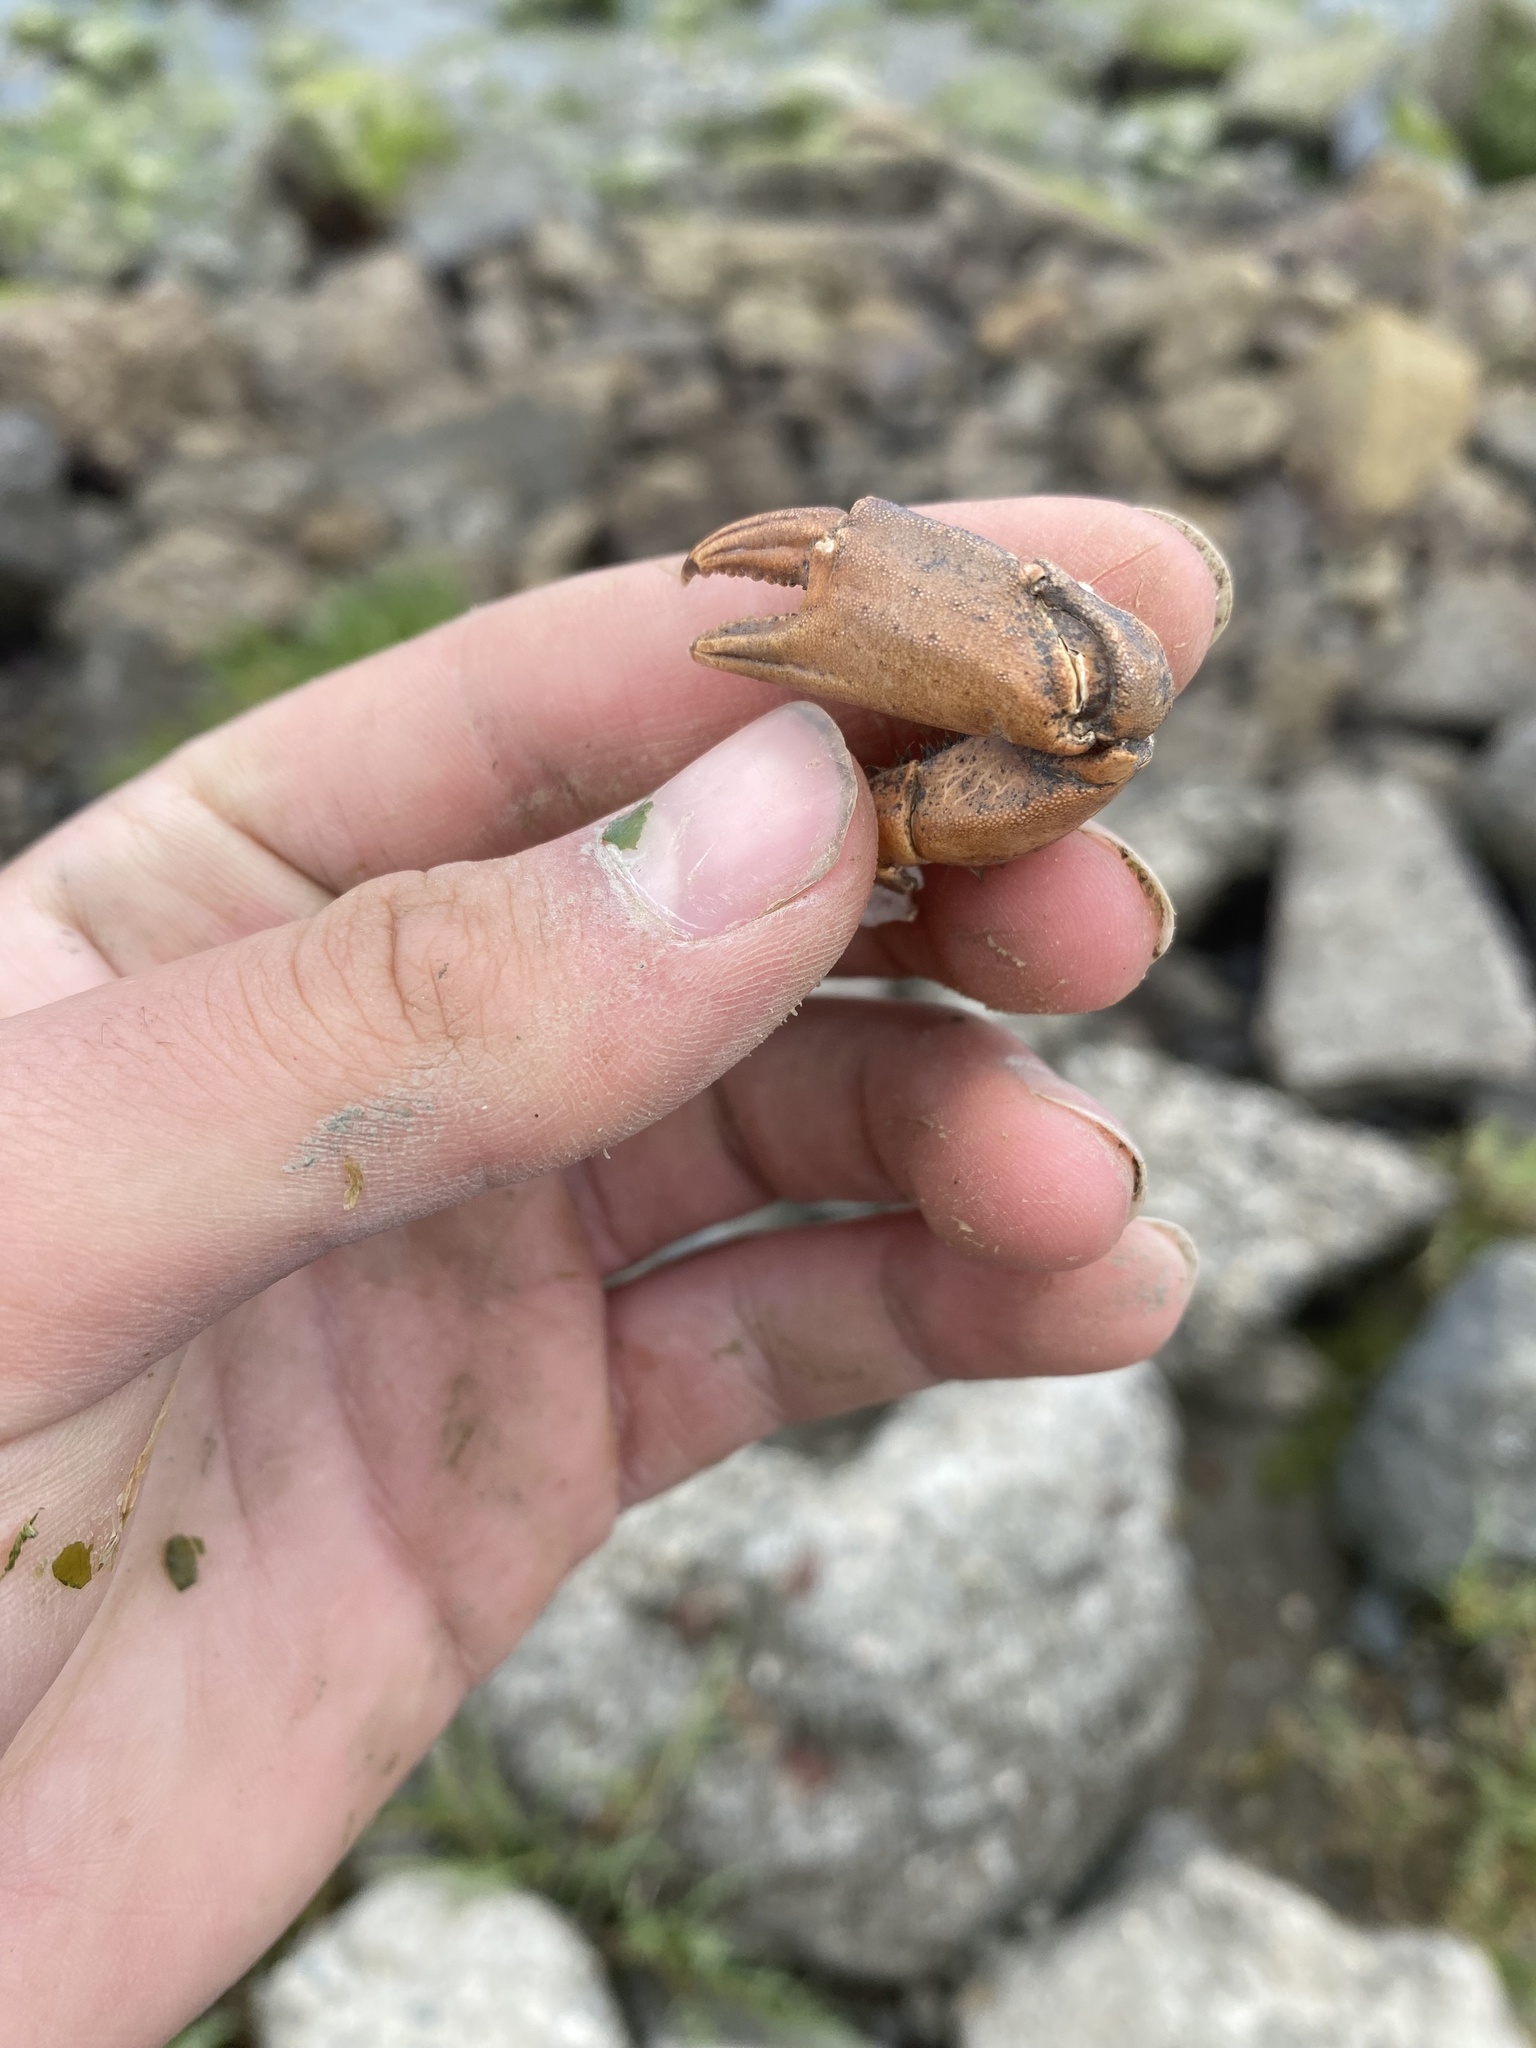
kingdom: Animalia
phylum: Arthropoda
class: Malacostraca
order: Decapoda
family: Carcinidae
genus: Carcinus
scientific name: Carcinus maenas
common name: European green crab
